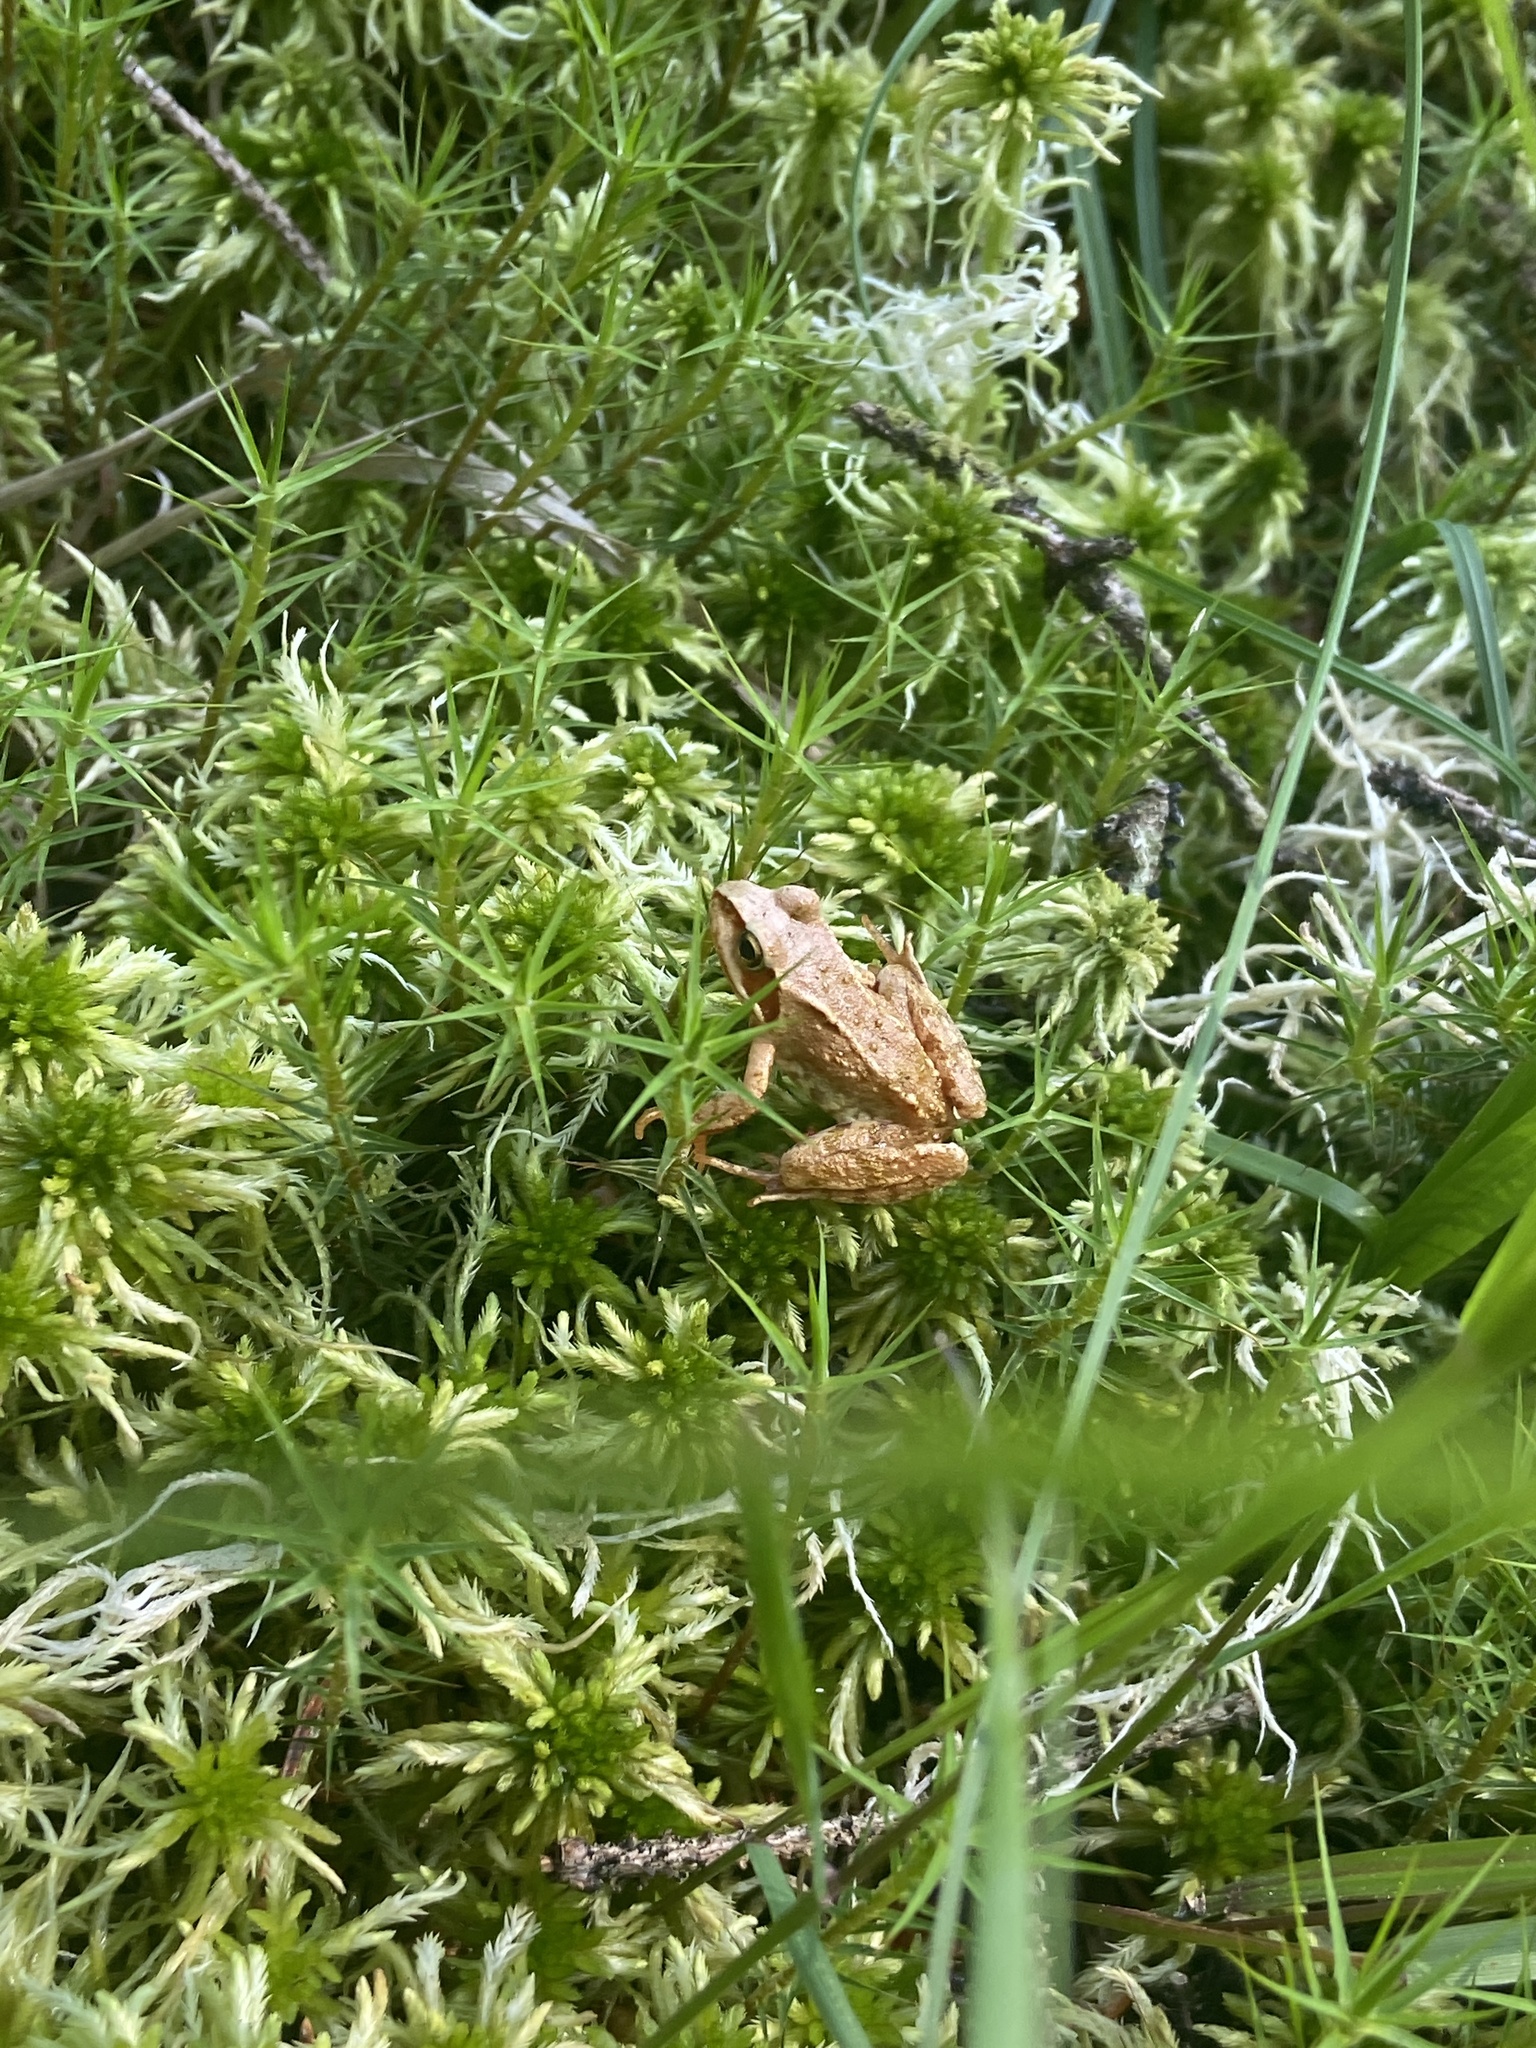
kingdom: Animalia
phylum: Chordata
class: Amphibia
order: Anura
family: Ranidae
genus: Rana
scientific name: Rana temporaria
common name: Common frog
